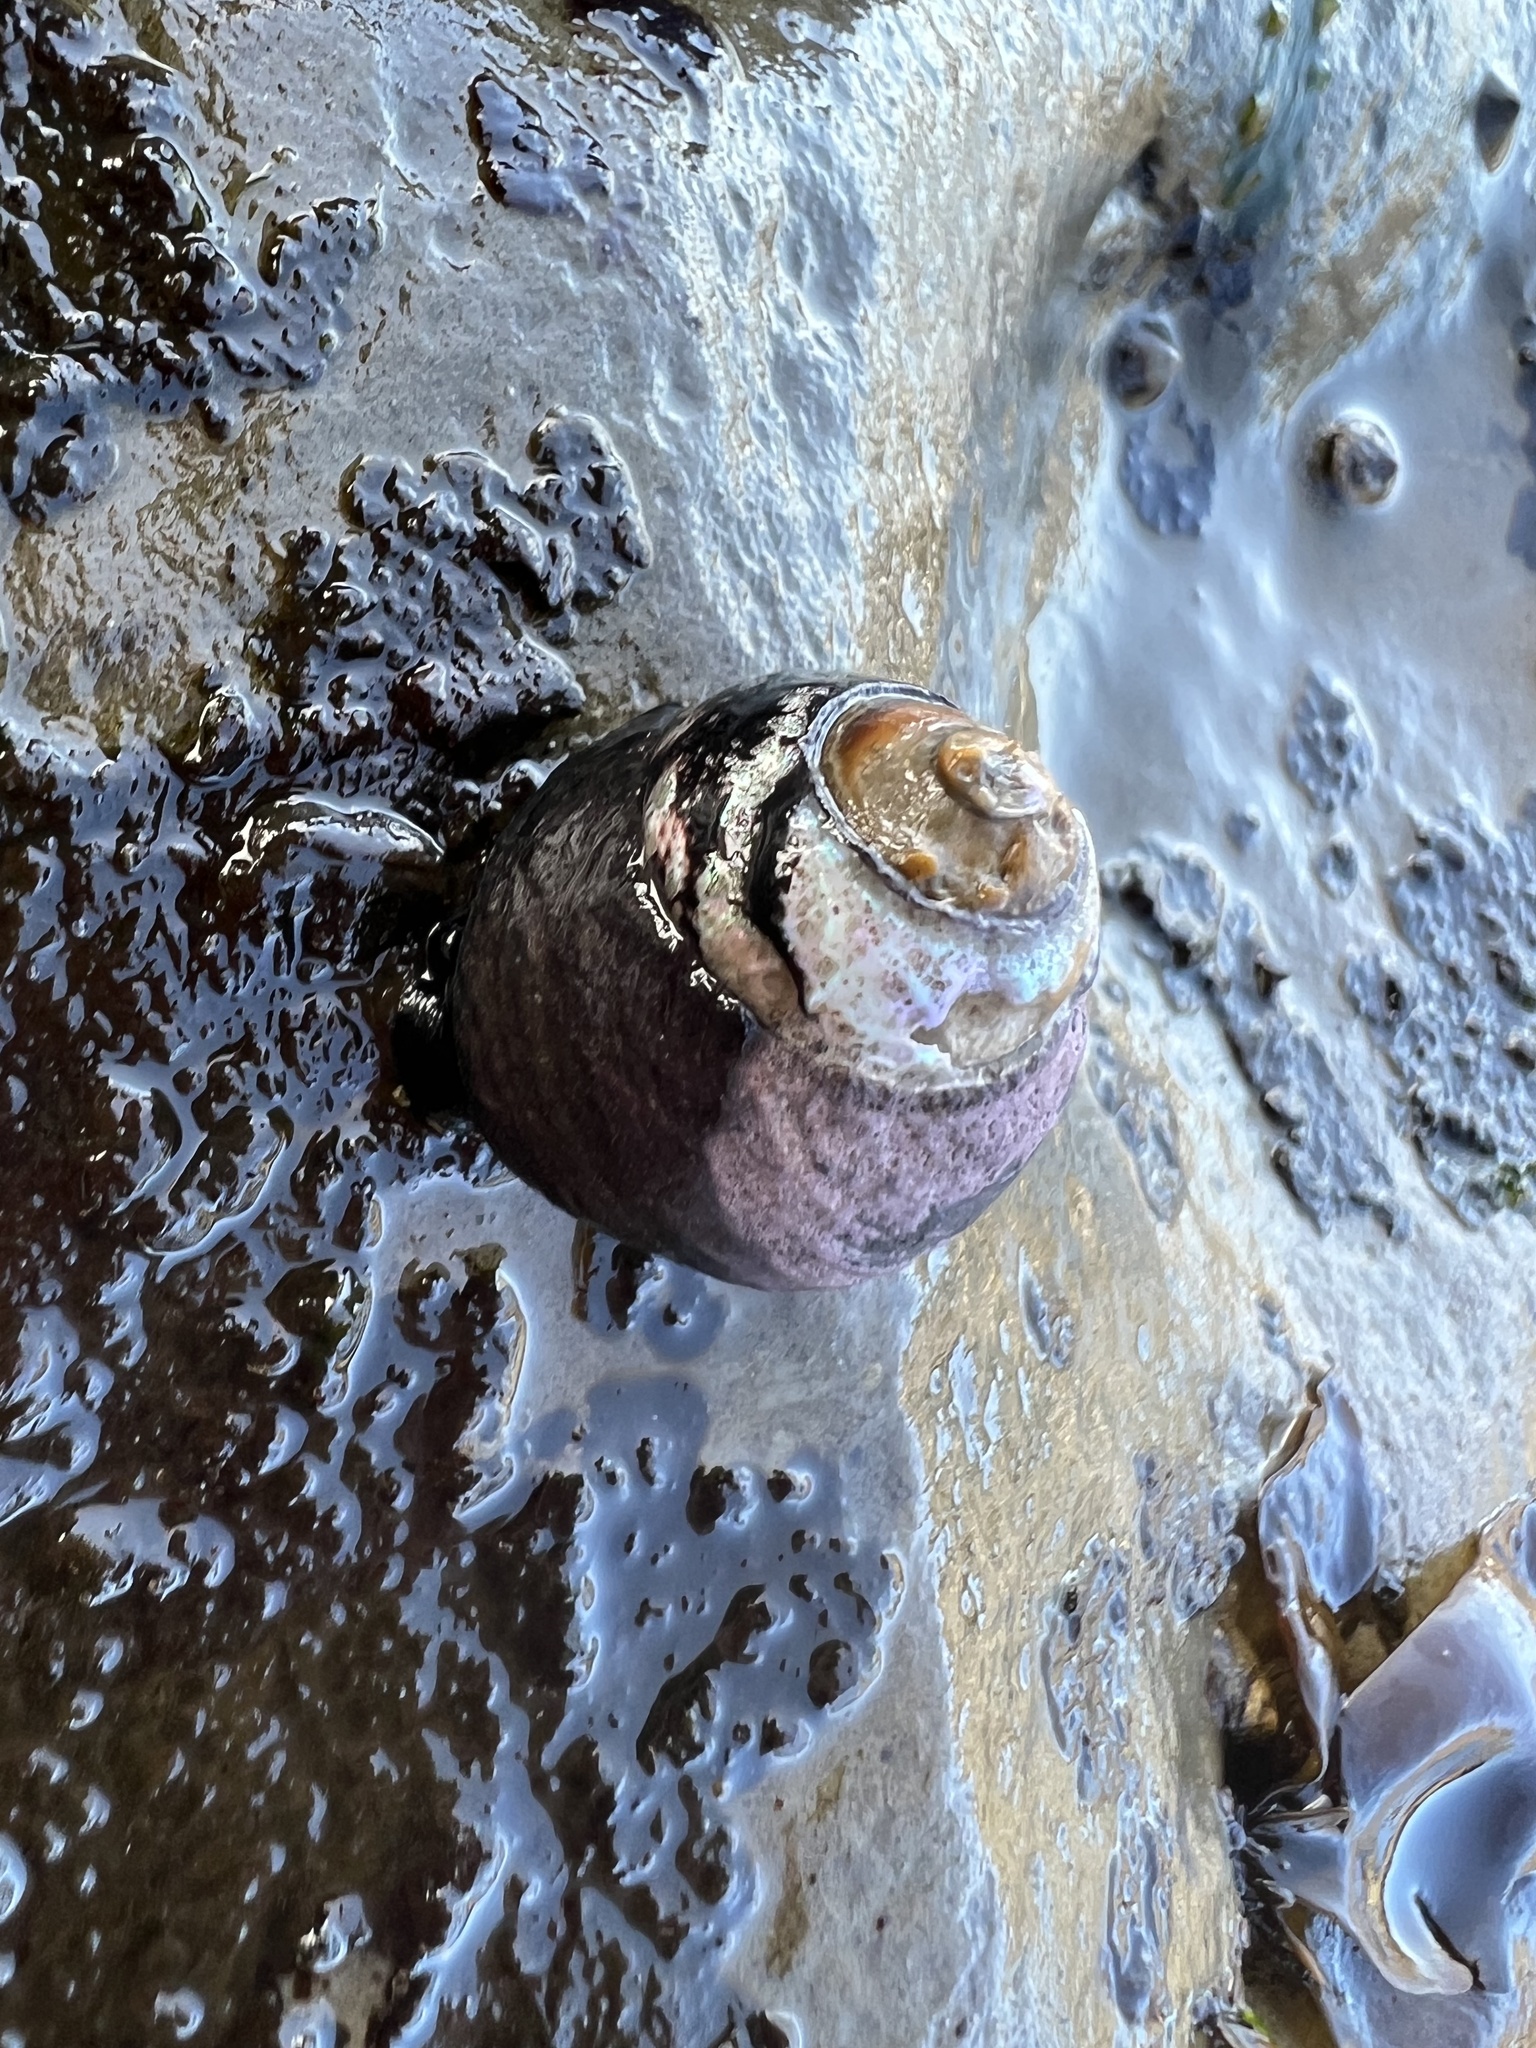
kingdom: Animalia
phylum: Mollusca
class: Gastropoda
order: Trochida
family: Tegulidae
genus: Tegula
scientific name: Tegula funebralis
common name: Black tegula
